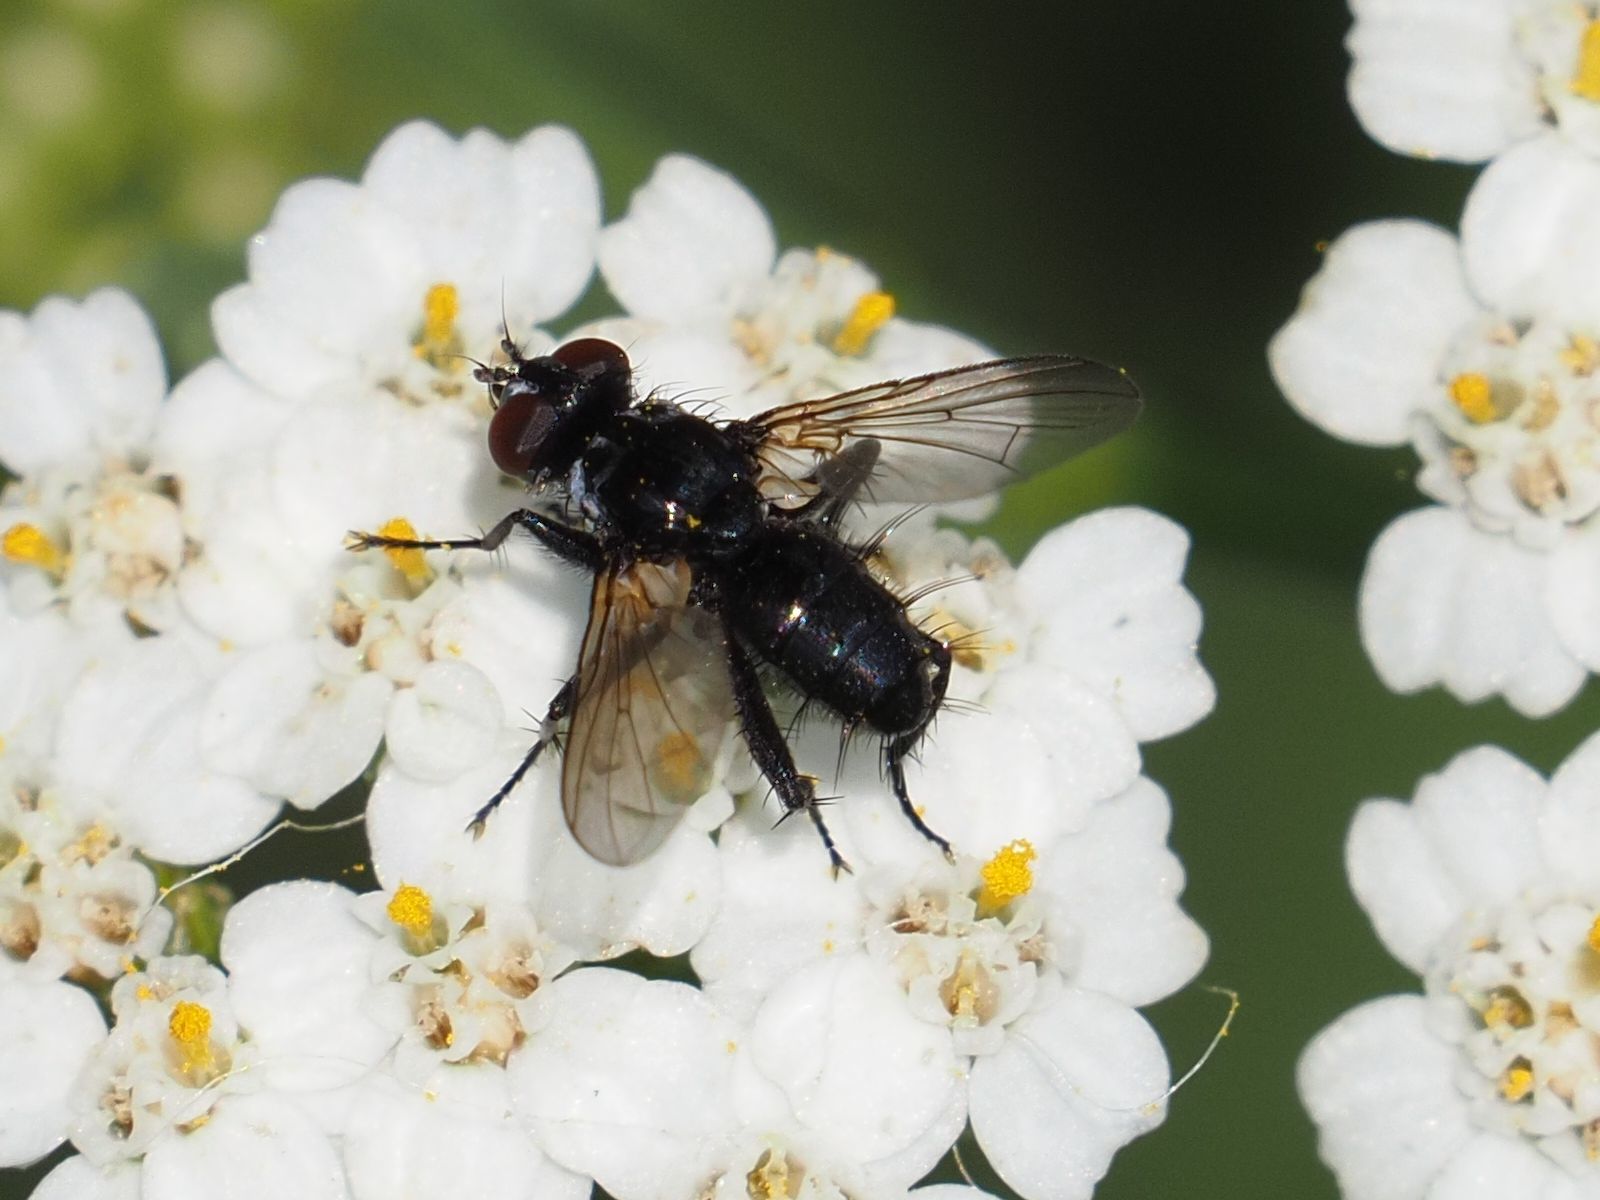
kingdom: Animalia
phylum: Arthropoda
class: Insecta
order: Diptera
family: Tachinidae
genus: Phania
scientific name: Phania funesta
